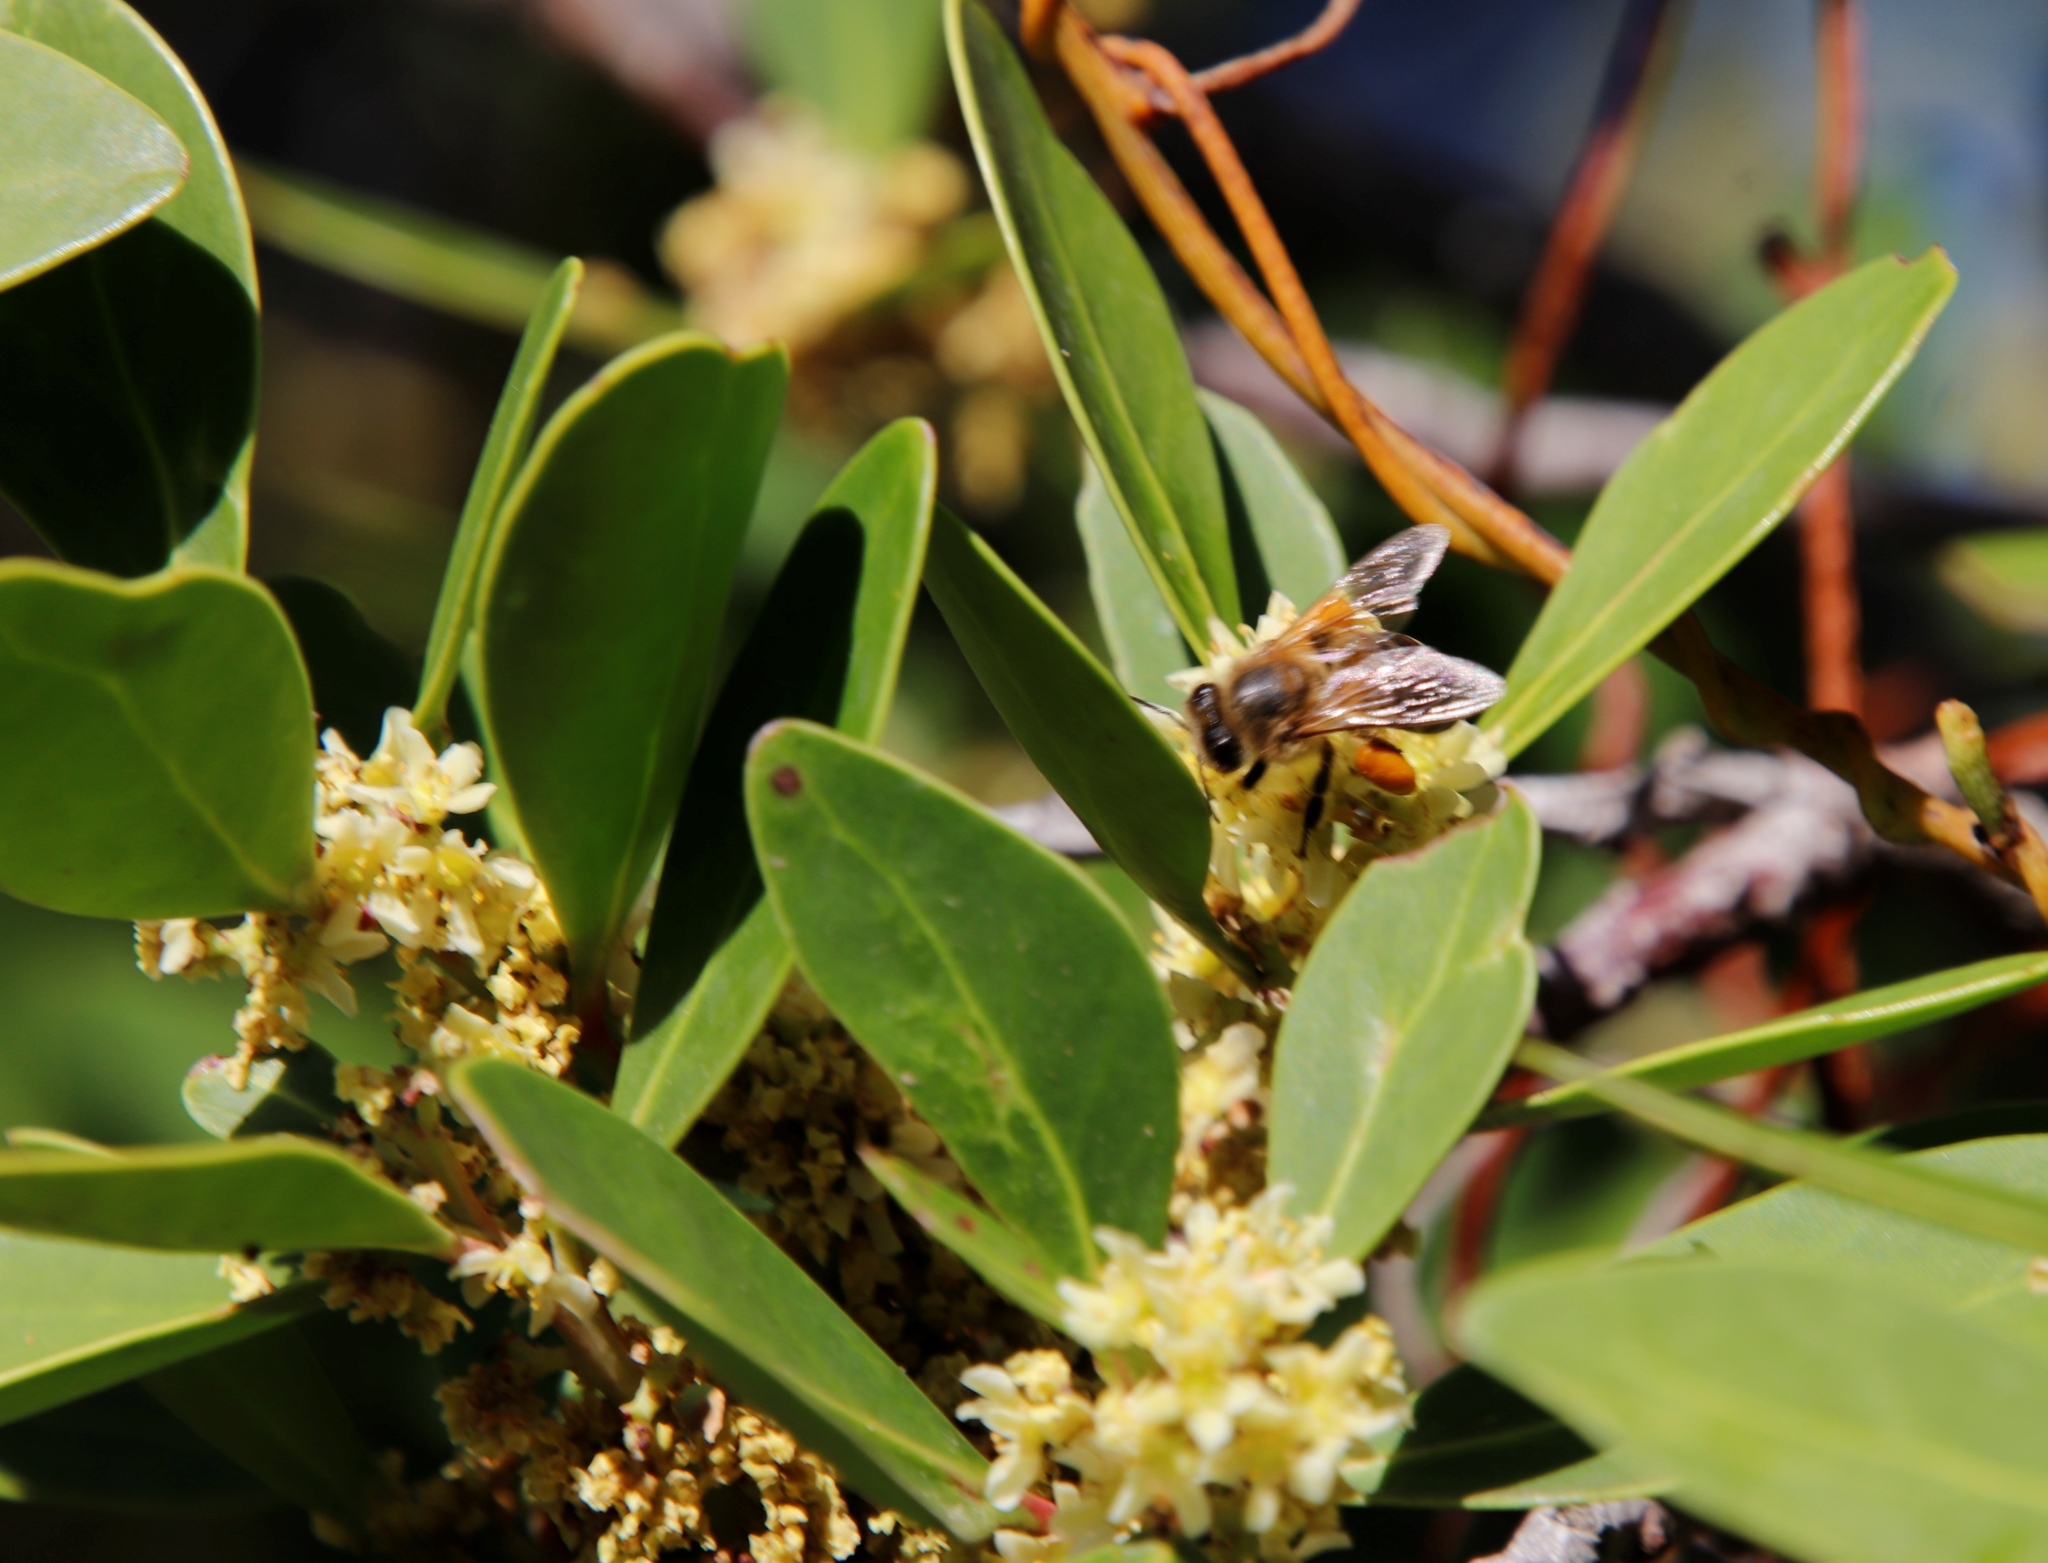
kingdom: Animalia
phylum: Arthropoda
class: Insecta
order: Hymenoptera
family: Apidae
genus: Apis
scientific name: Apis mellifera
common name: Honey bee
